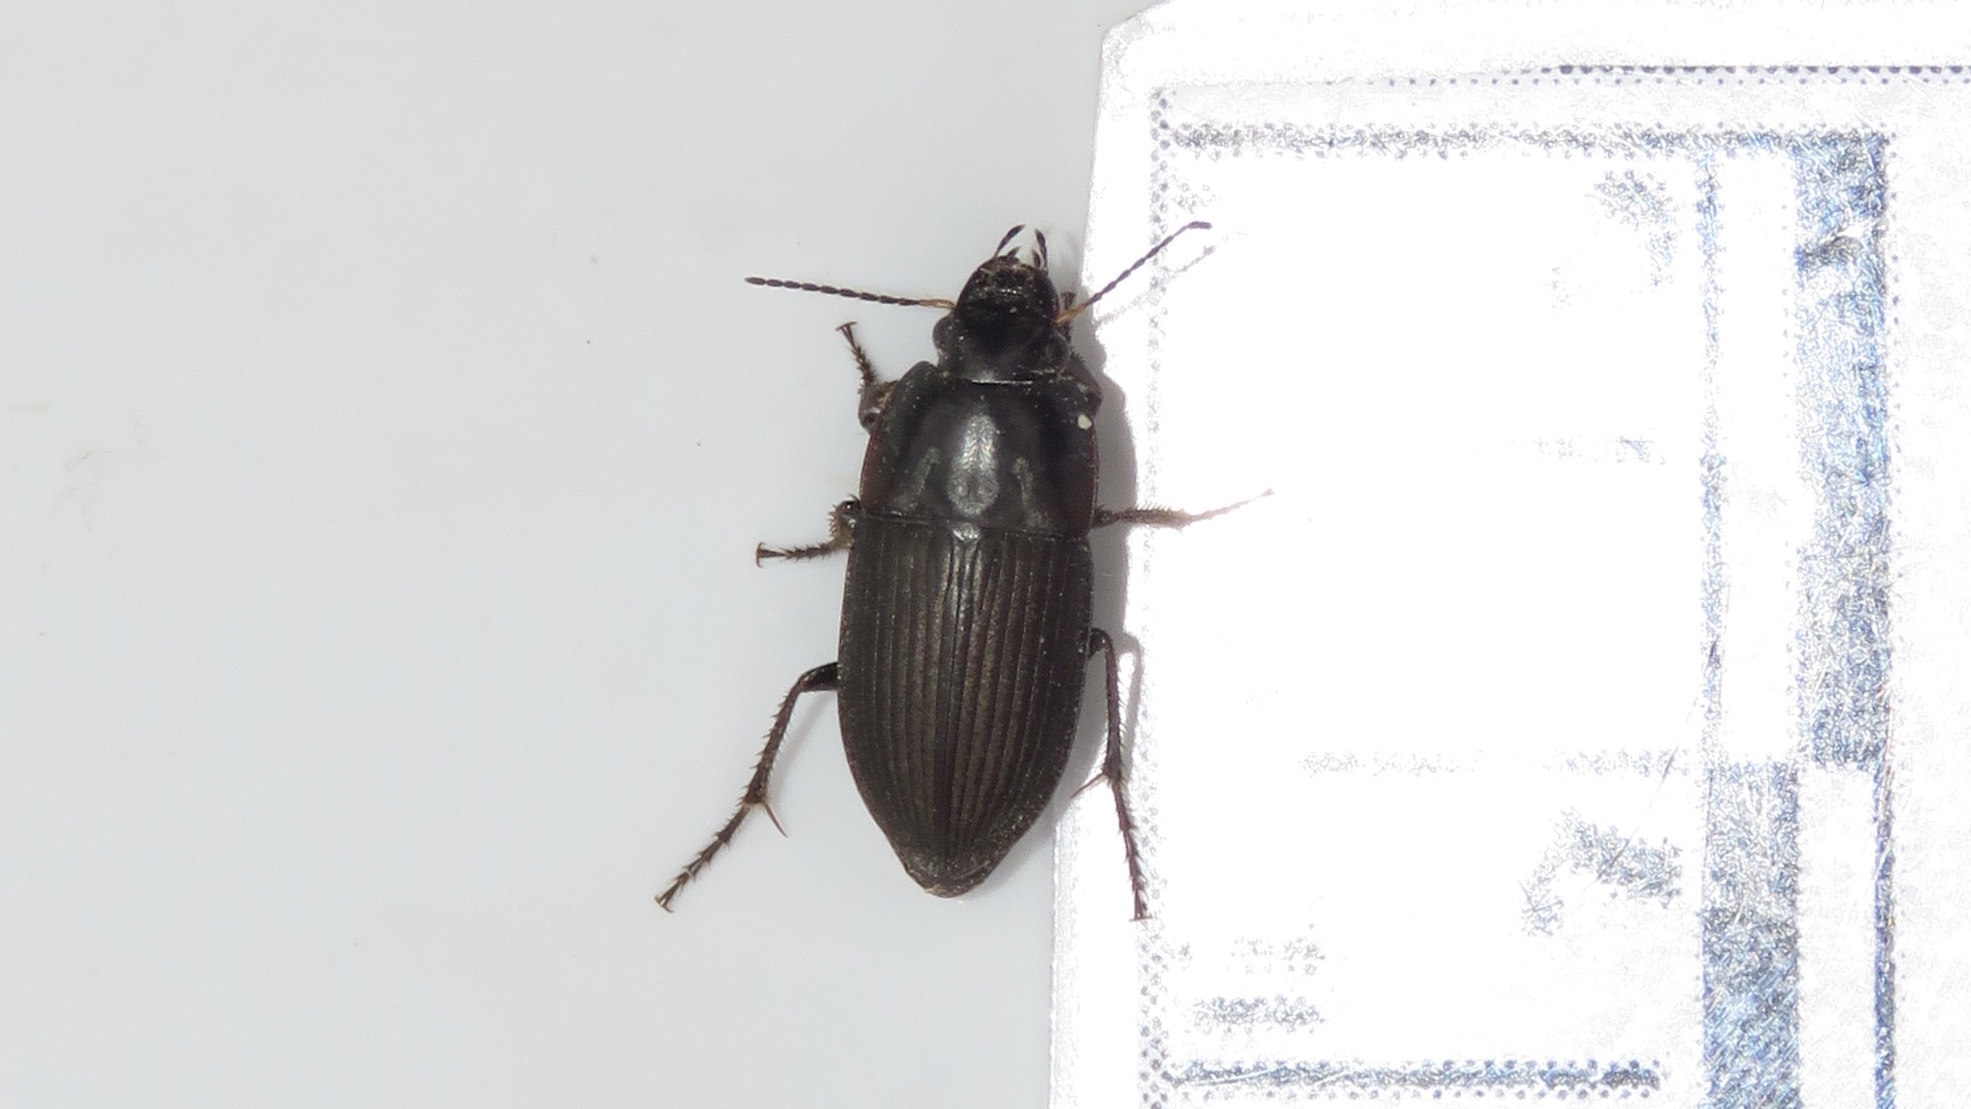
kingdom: Animalia
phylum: Arthropoda
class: Insecta
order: Coleoptera
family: Carabidae
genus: Anisodactylus
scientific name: Anisodactylus rusticus
